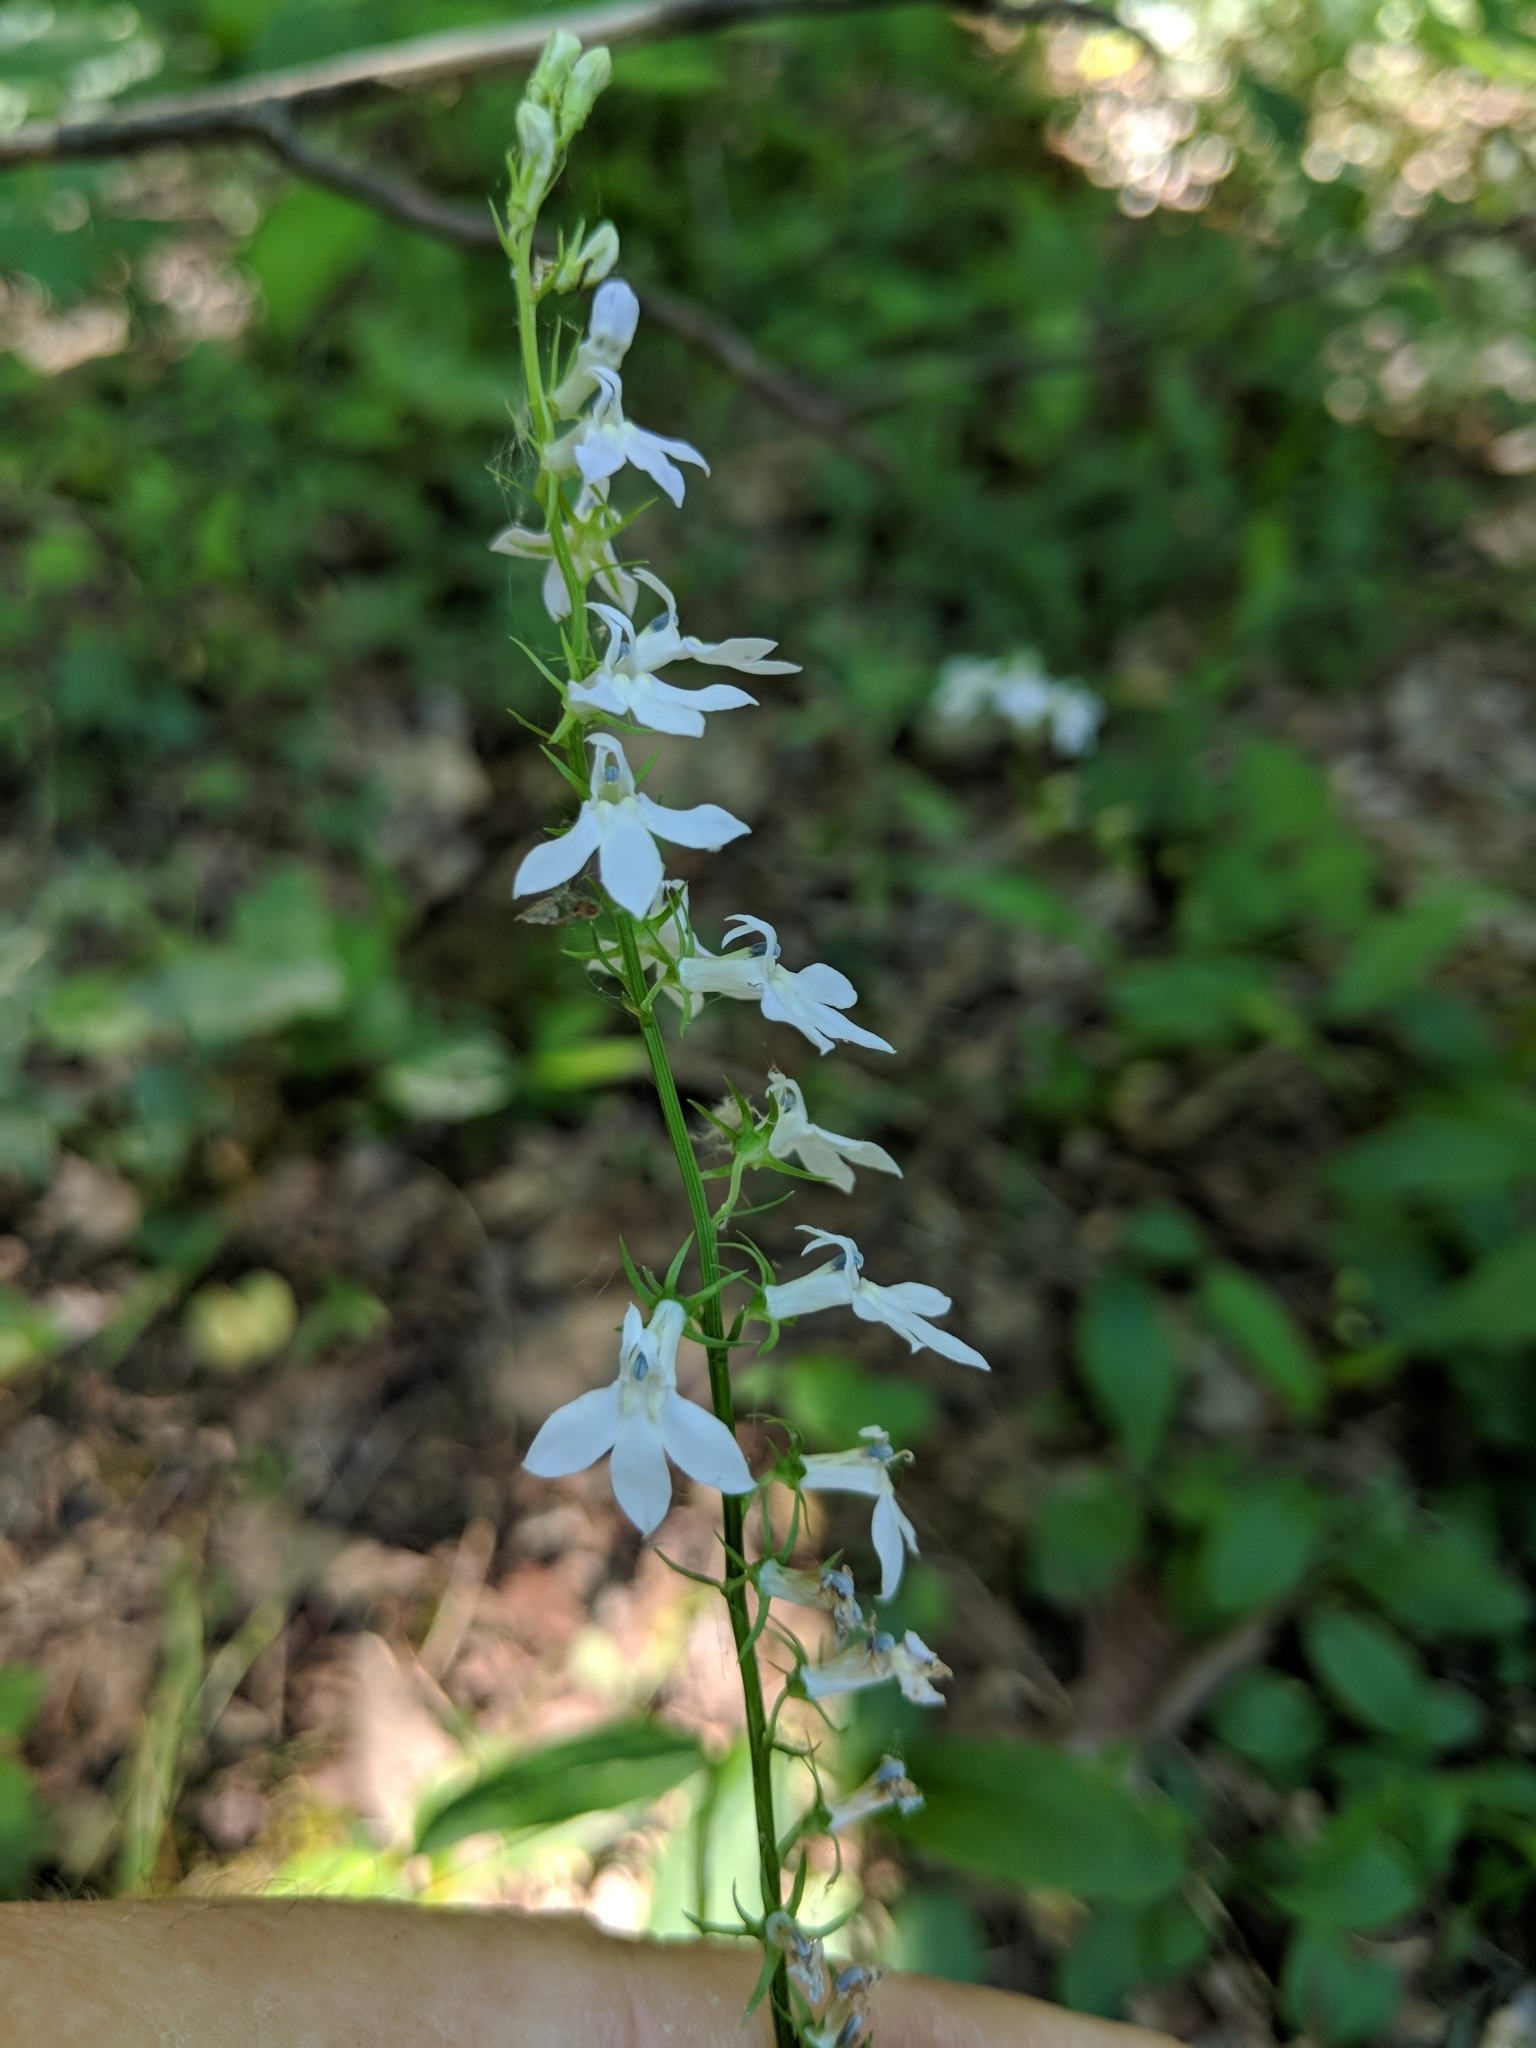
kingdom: Plantae
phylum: Tracheophyta
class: Magnoliopsida
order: Asterales
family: Campanulaceae
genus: Lobelia
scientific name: Lobelia spicata
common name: Pale-spike lobelia
